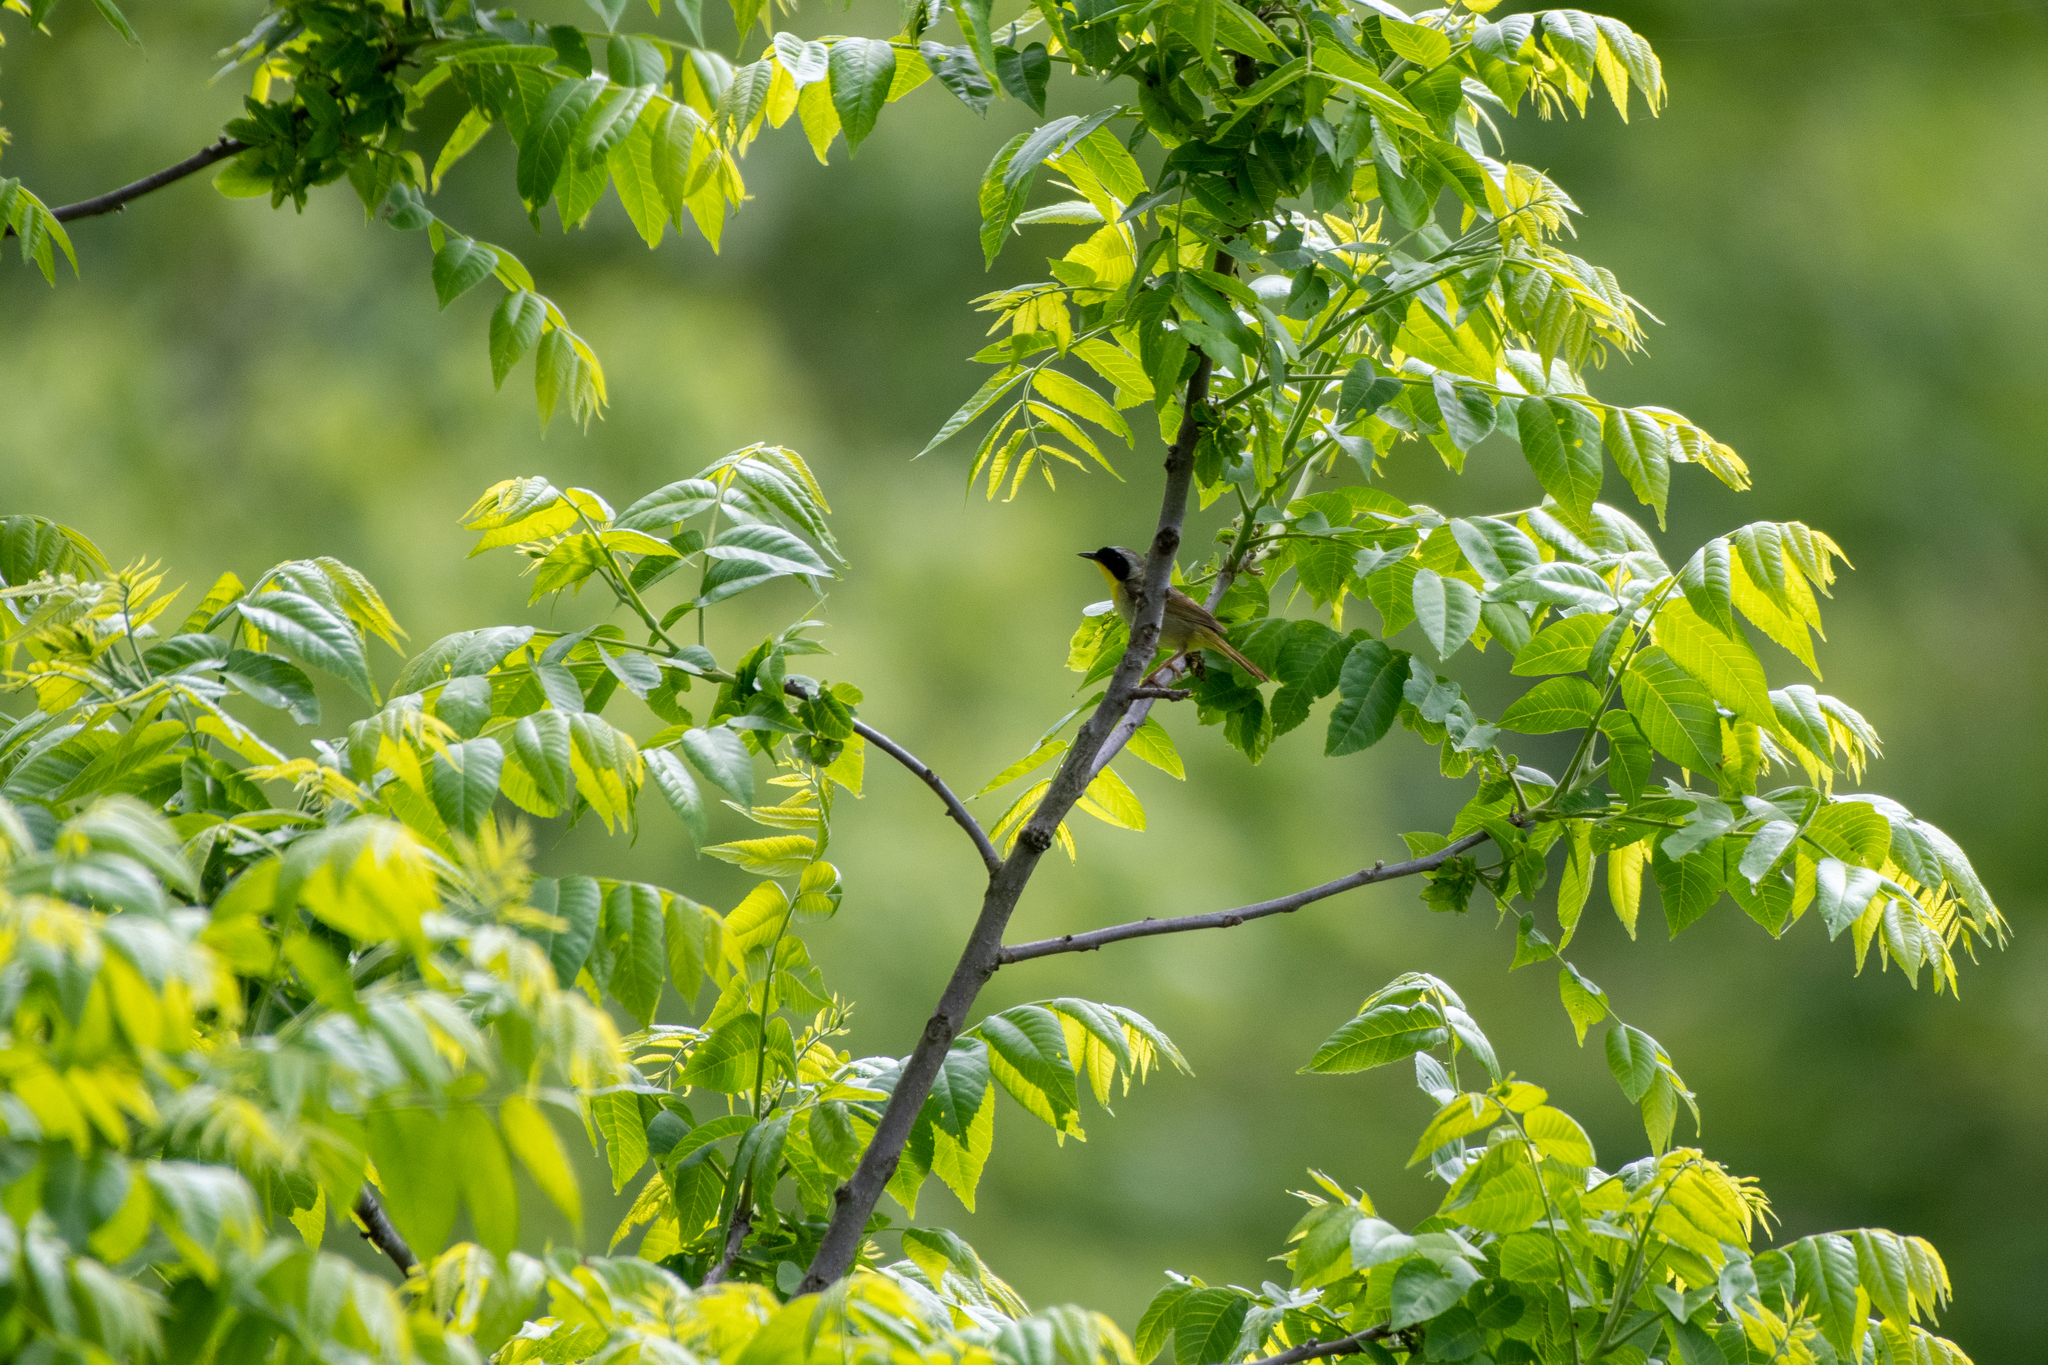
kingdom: Animalia
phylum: Chordata
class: Aves
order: Passeriformes
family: Parulidae
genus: Geothlypis
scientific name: Geothlypis trichas
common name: Common yellowthroat
